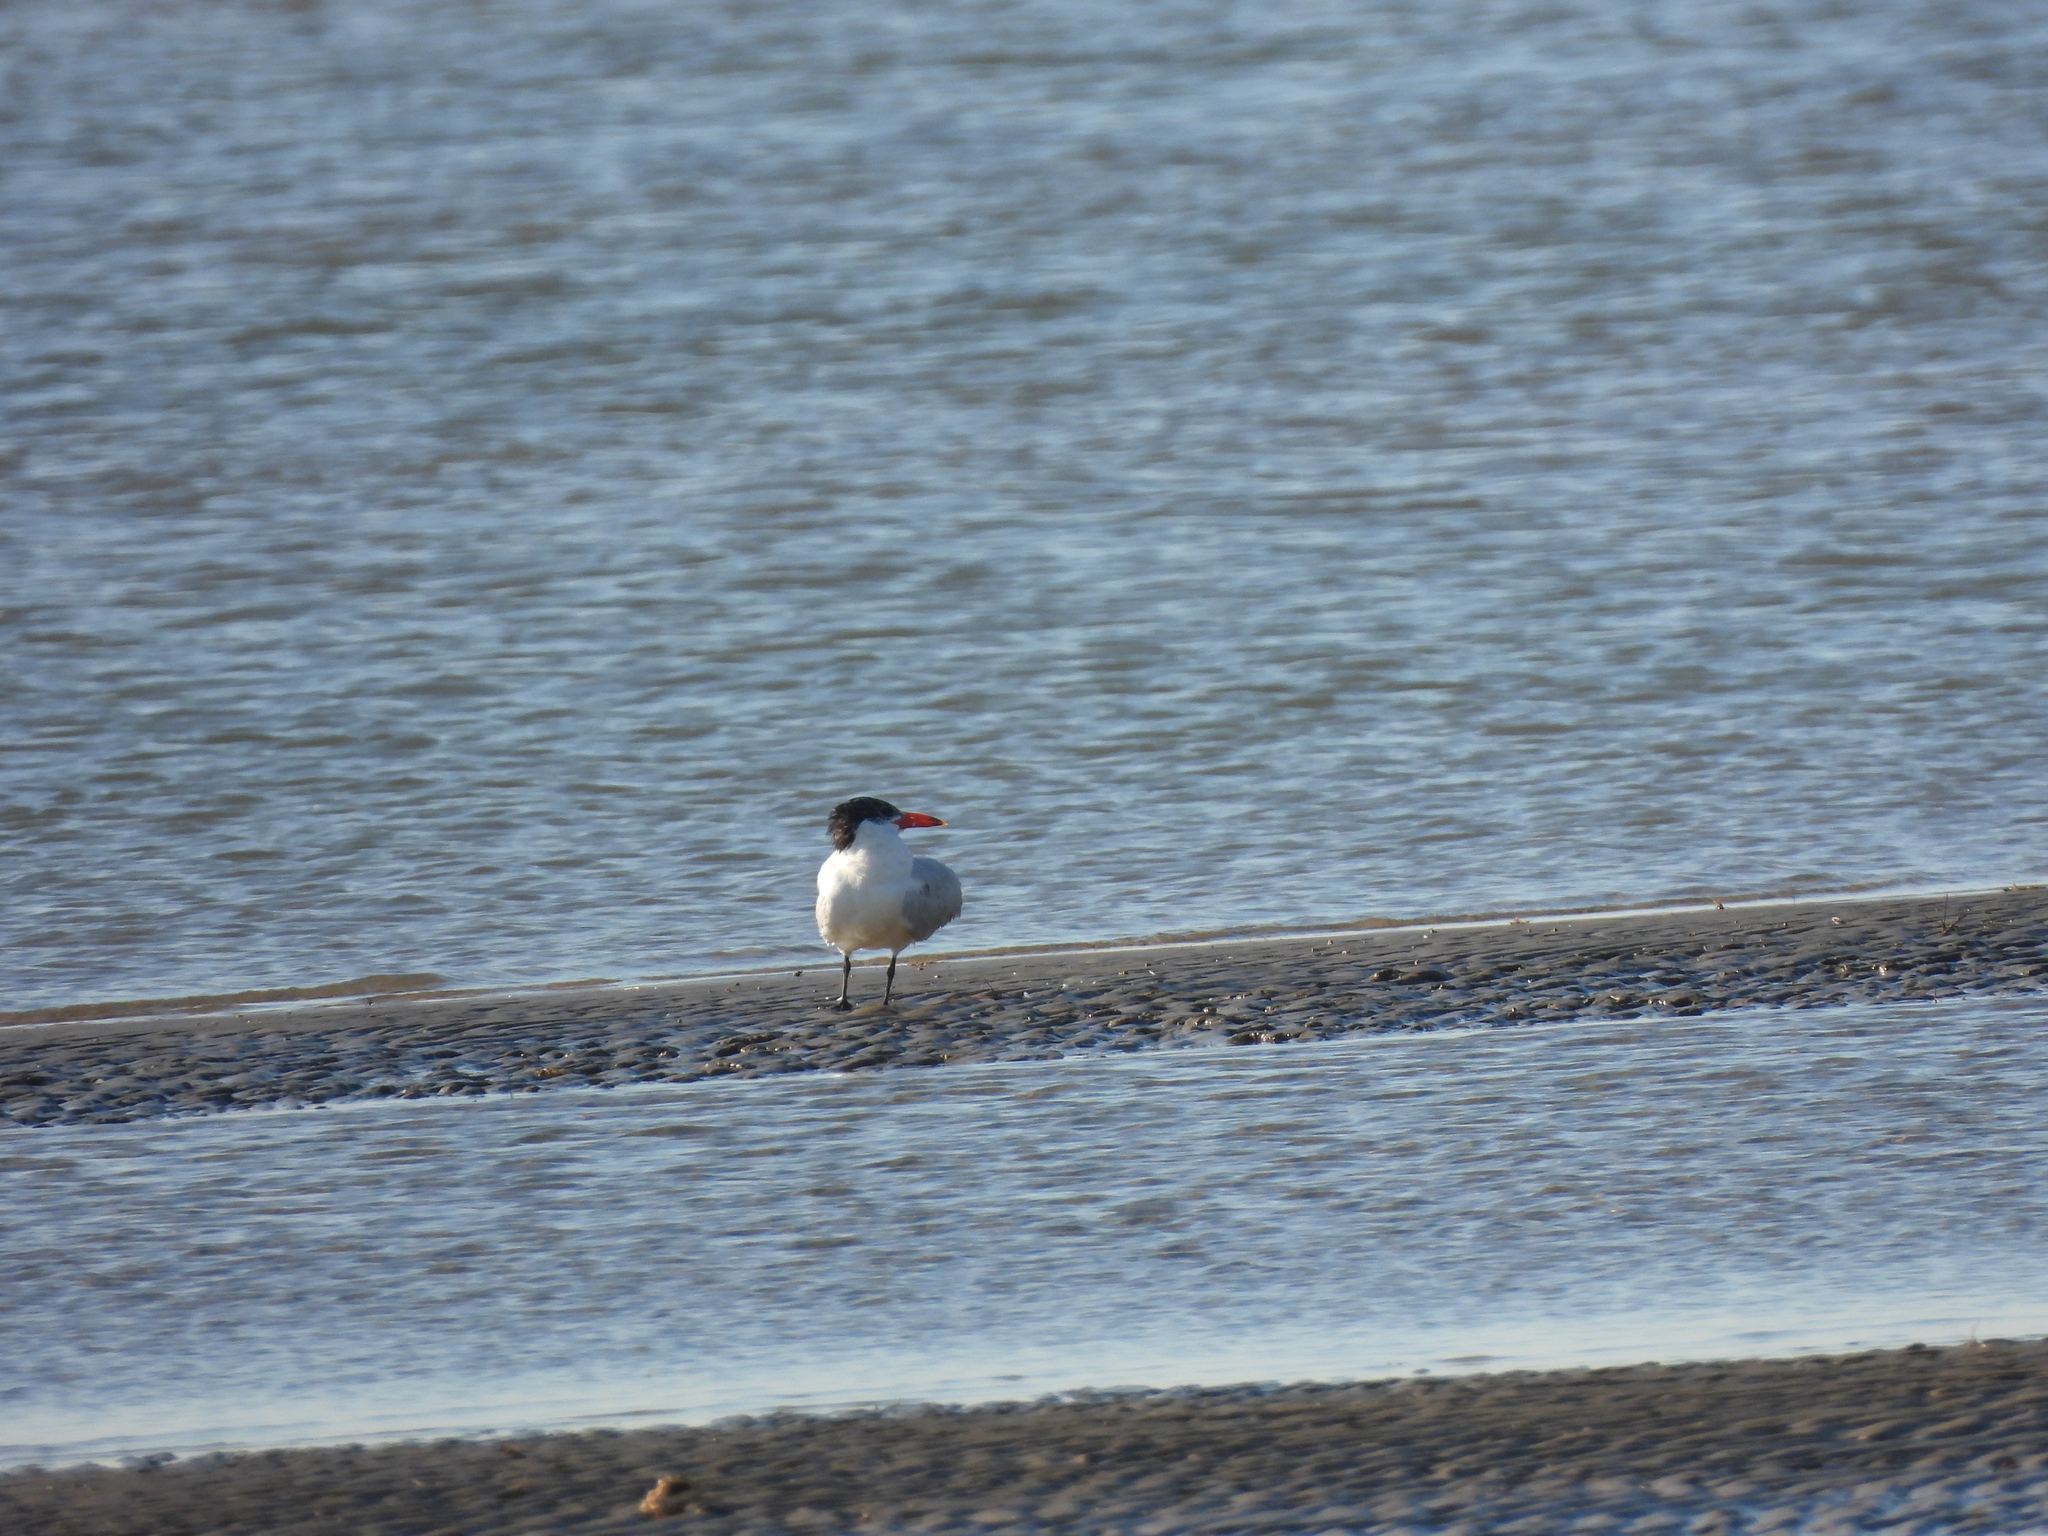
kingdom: Animalia
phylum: Chordata
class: Aves
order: Charadriiformes
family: Laridae
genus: Hydroprogne
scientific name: Hydroprogne caspia
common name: Caspian tern
